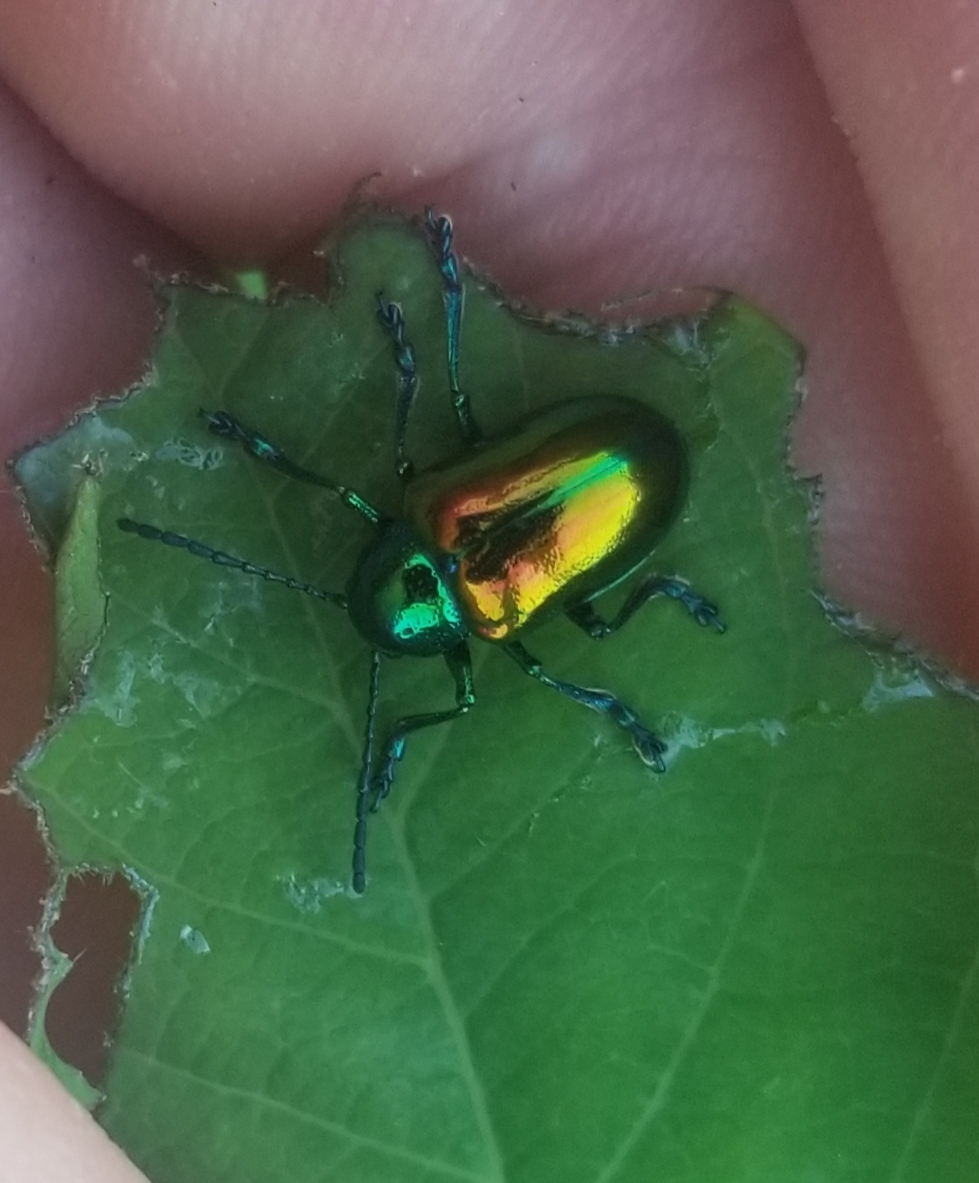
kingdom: Animalia
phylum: Arthropoda
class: Insecta
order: Coleoptera
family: Chrysomelidae
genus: Chrysochus
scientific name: Chrysochus auratus
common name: Dogbane leaf beetle
